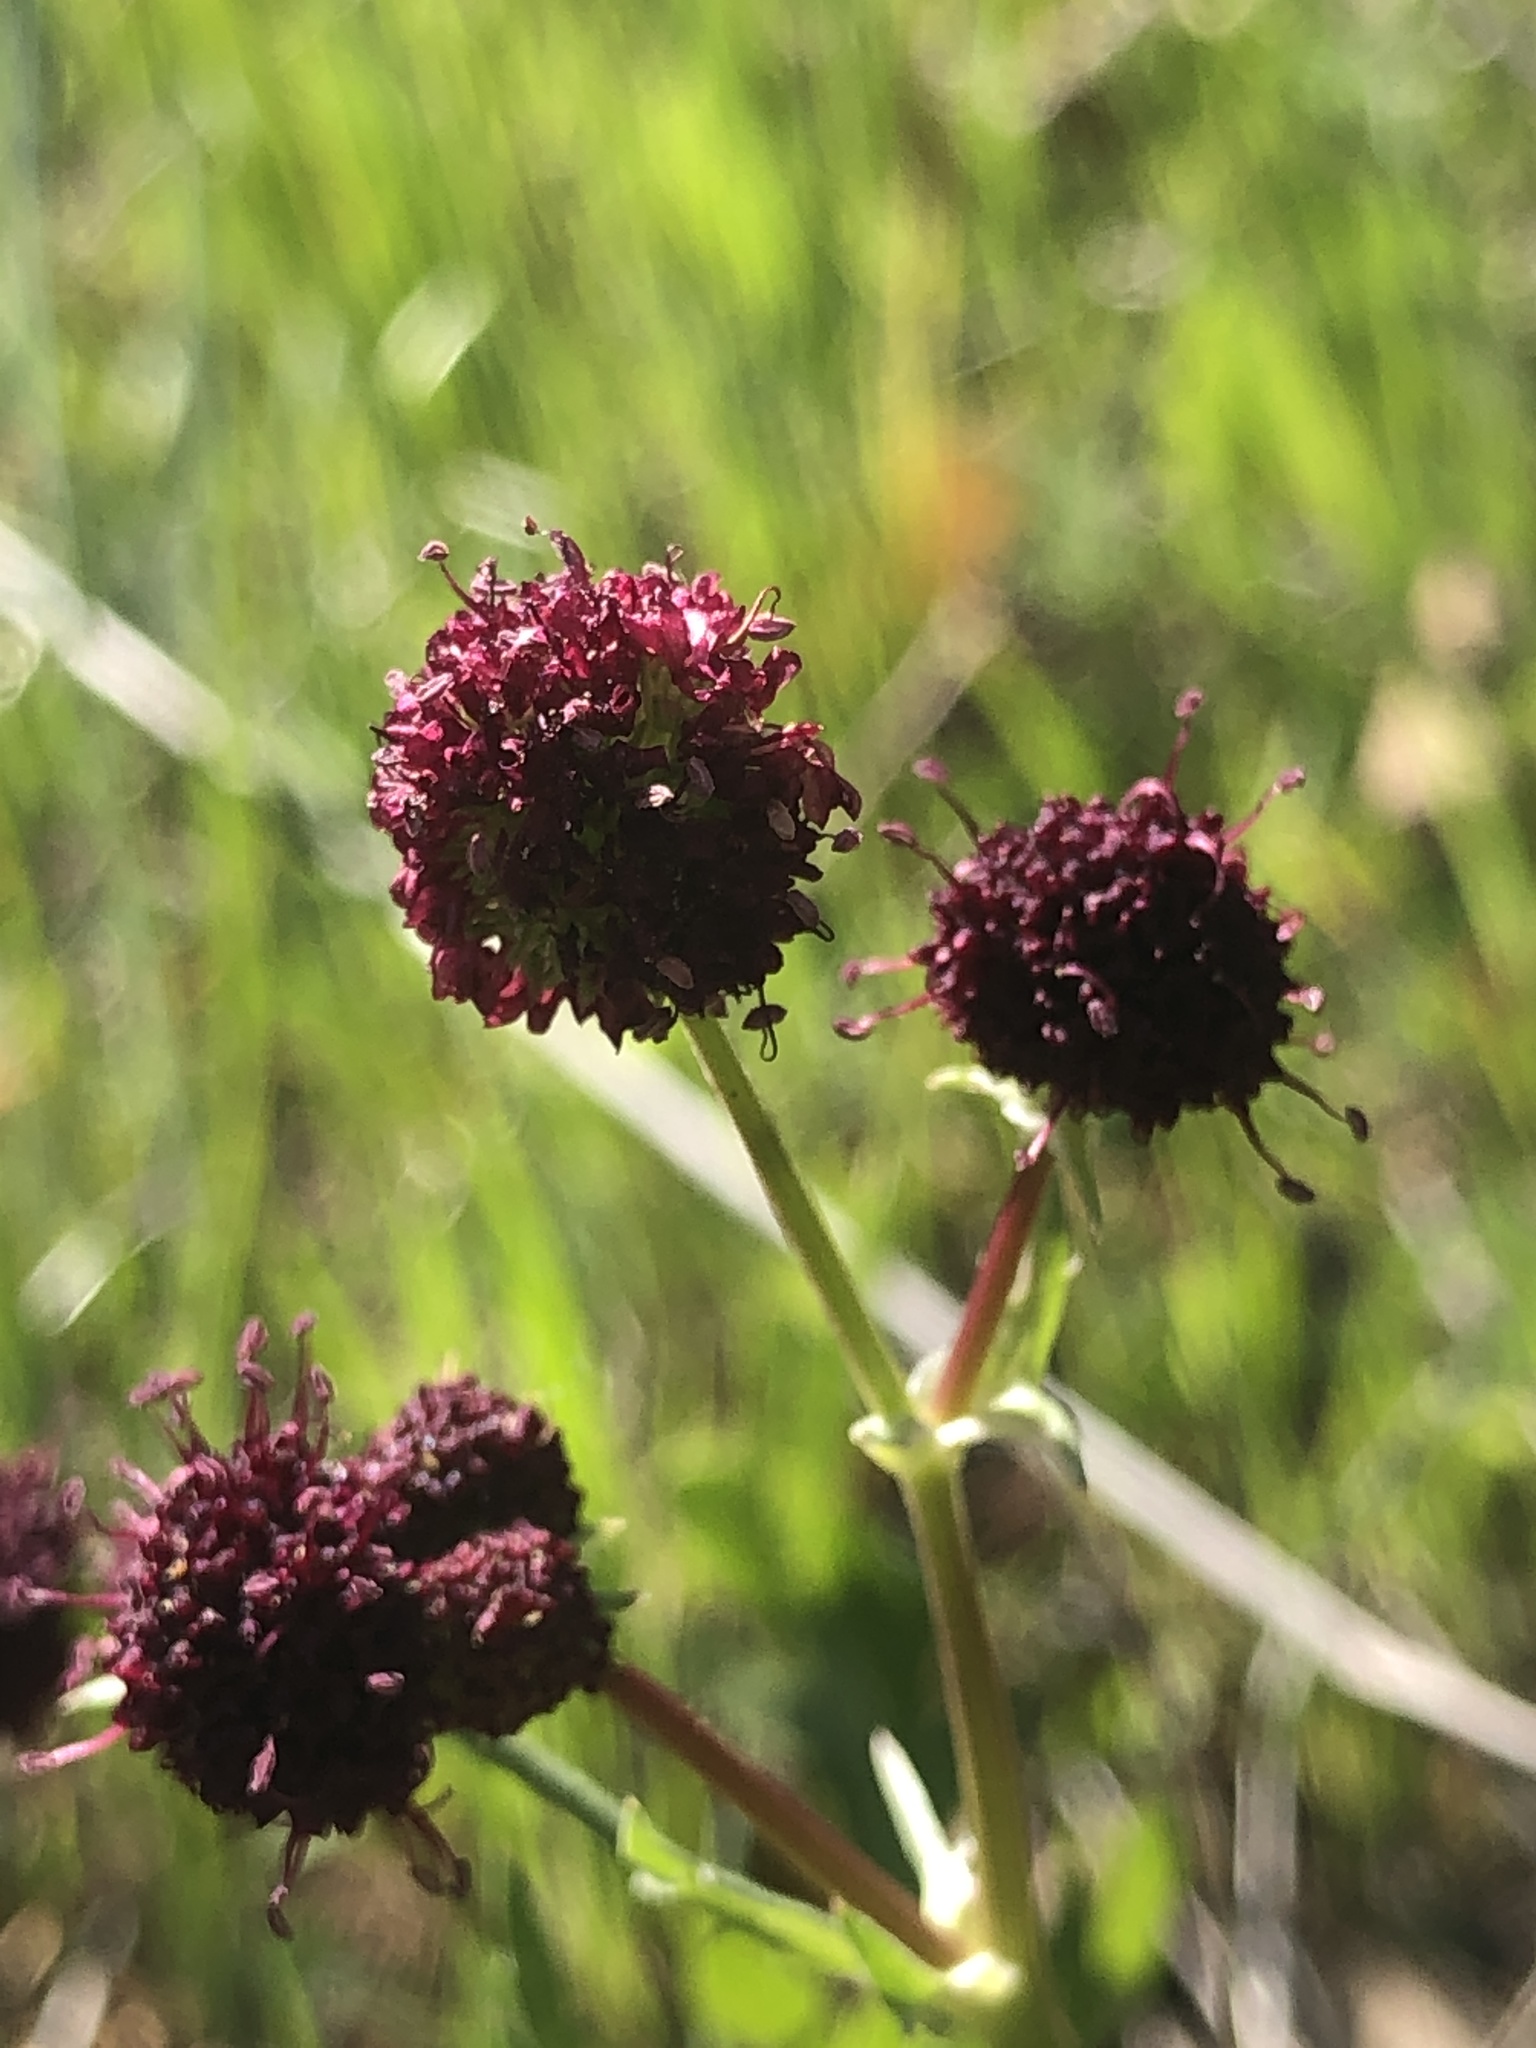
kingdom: Plantae
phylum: Tracheophyta
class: Magnoliopsida
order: Apiales
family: Apiaceae
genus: Sanicula
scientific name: Sanicula bipinnatifida
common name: Shoe-buttons
